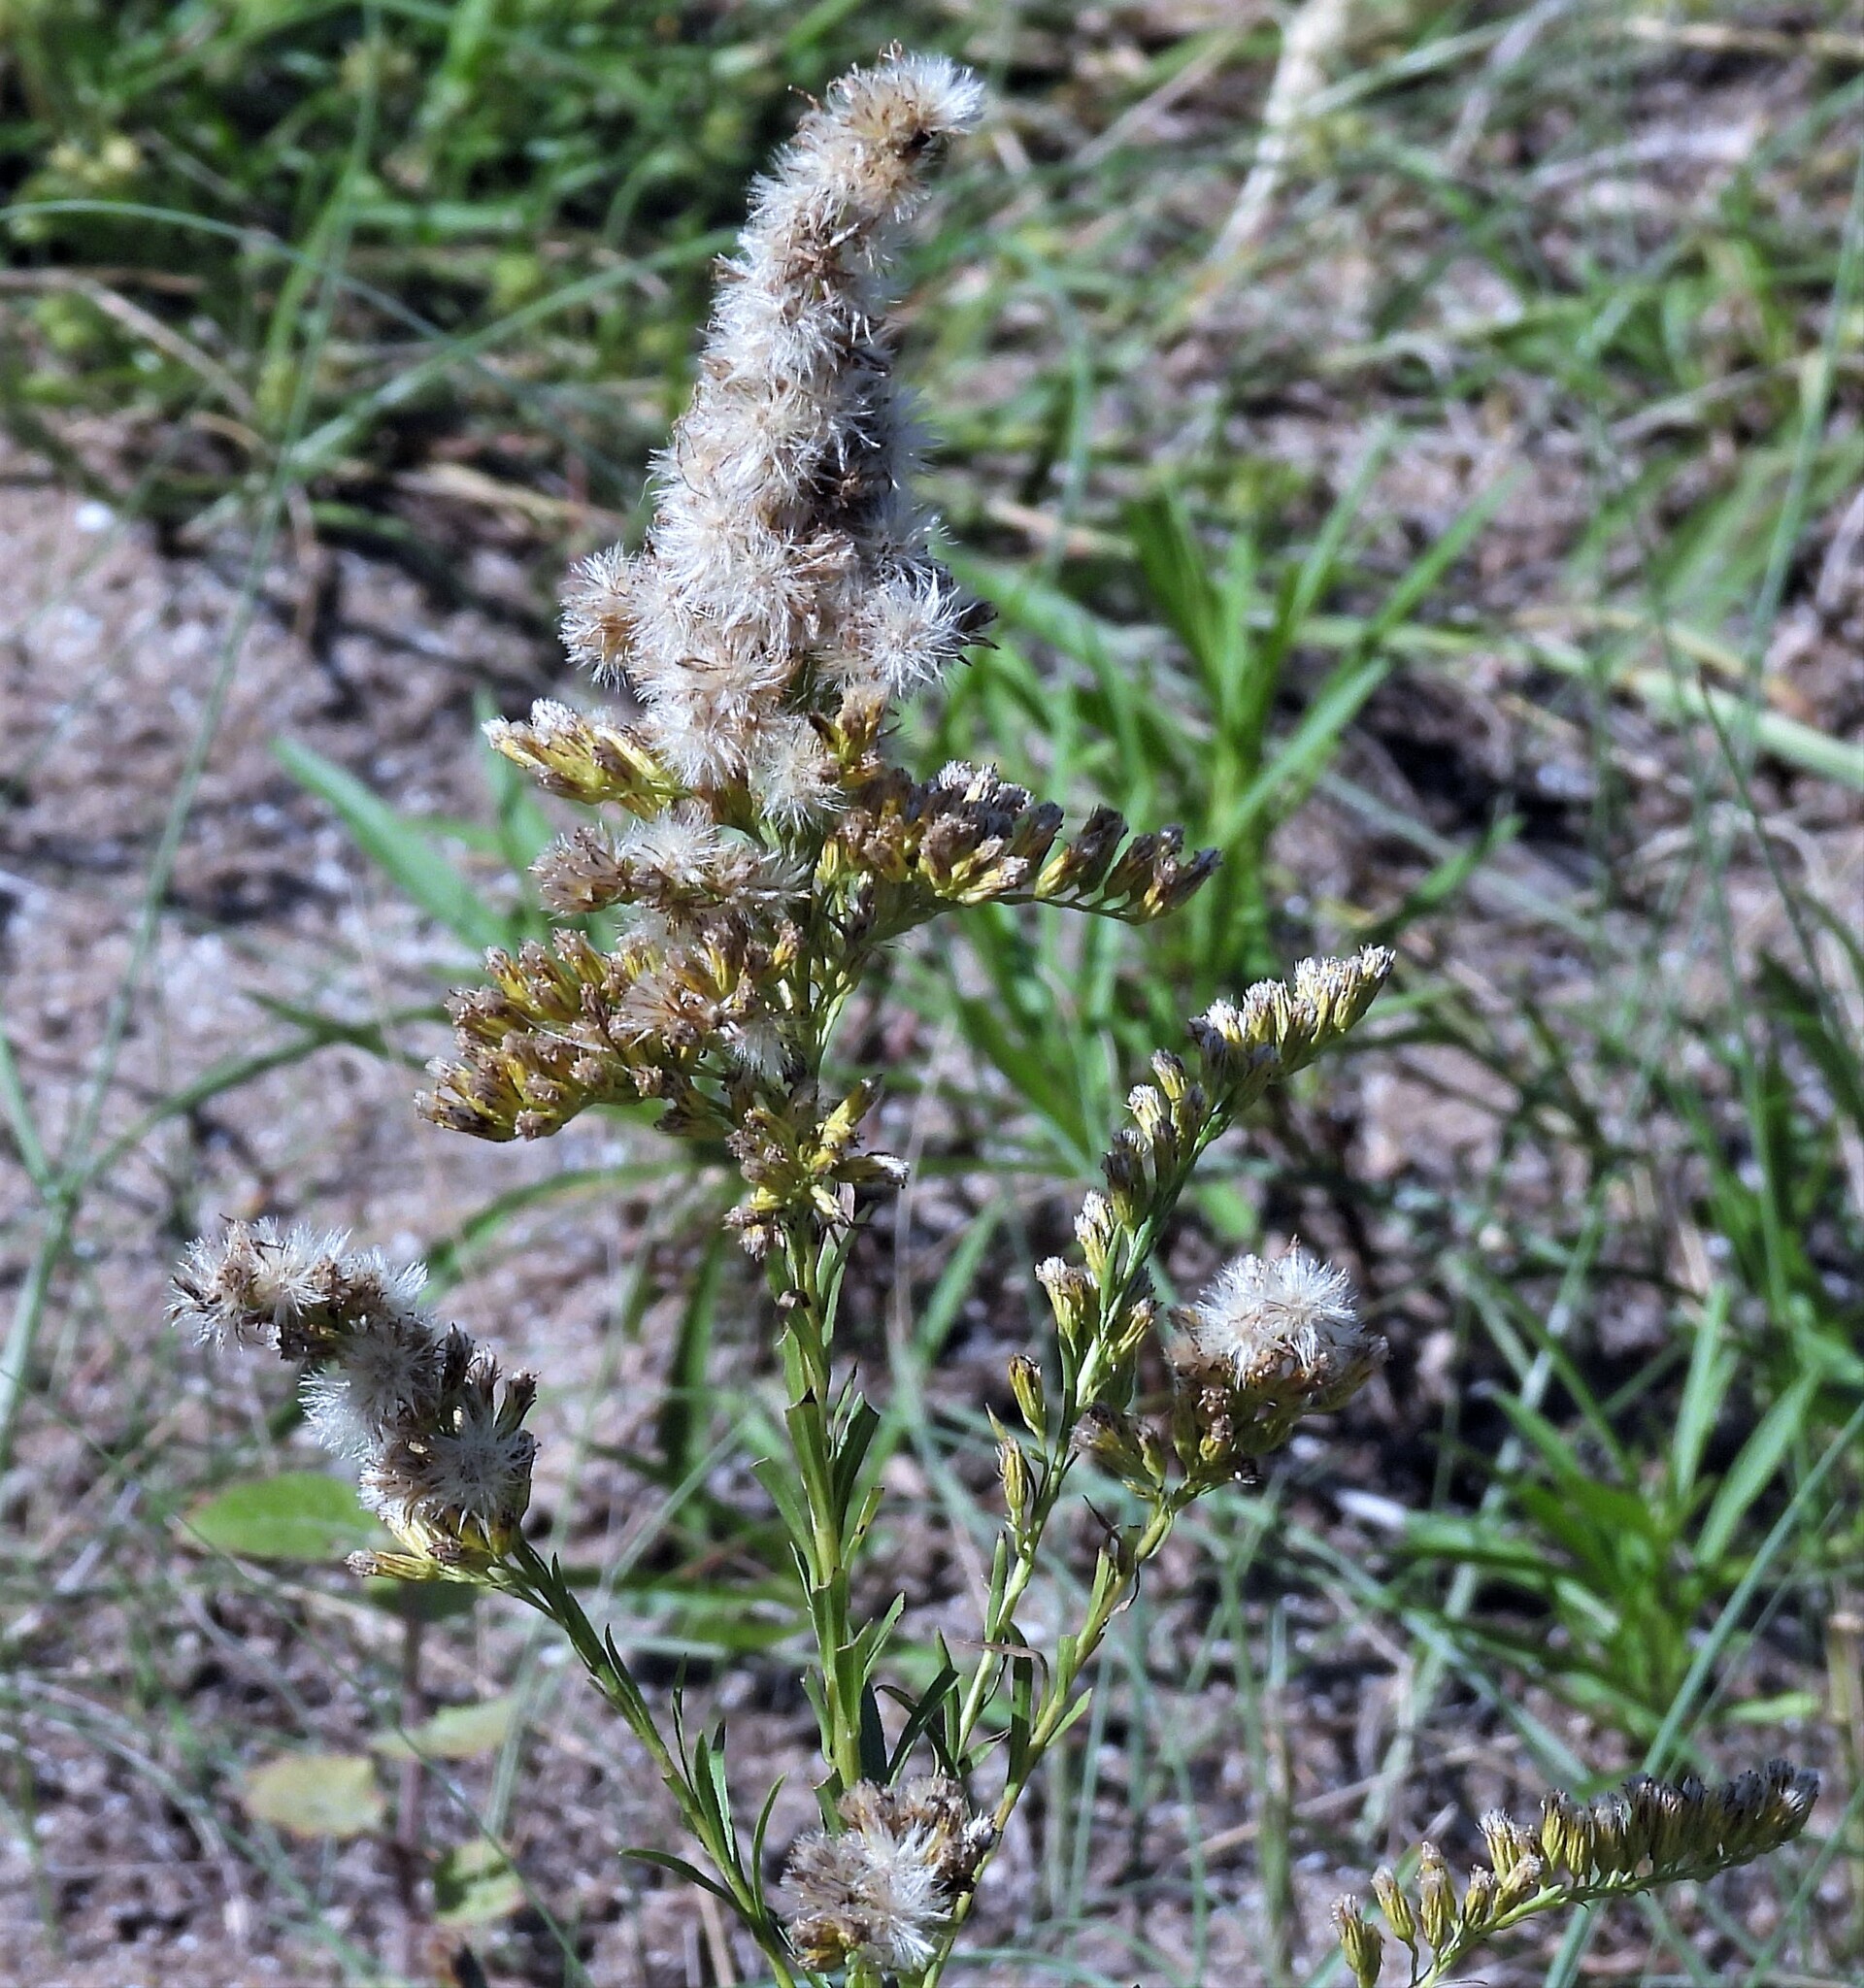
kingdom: Plantae
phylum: Tracheophyta
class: Magnoliopsida
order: Asterales
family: Asteraceae
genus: Solidago
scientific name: Solidago chilensis
